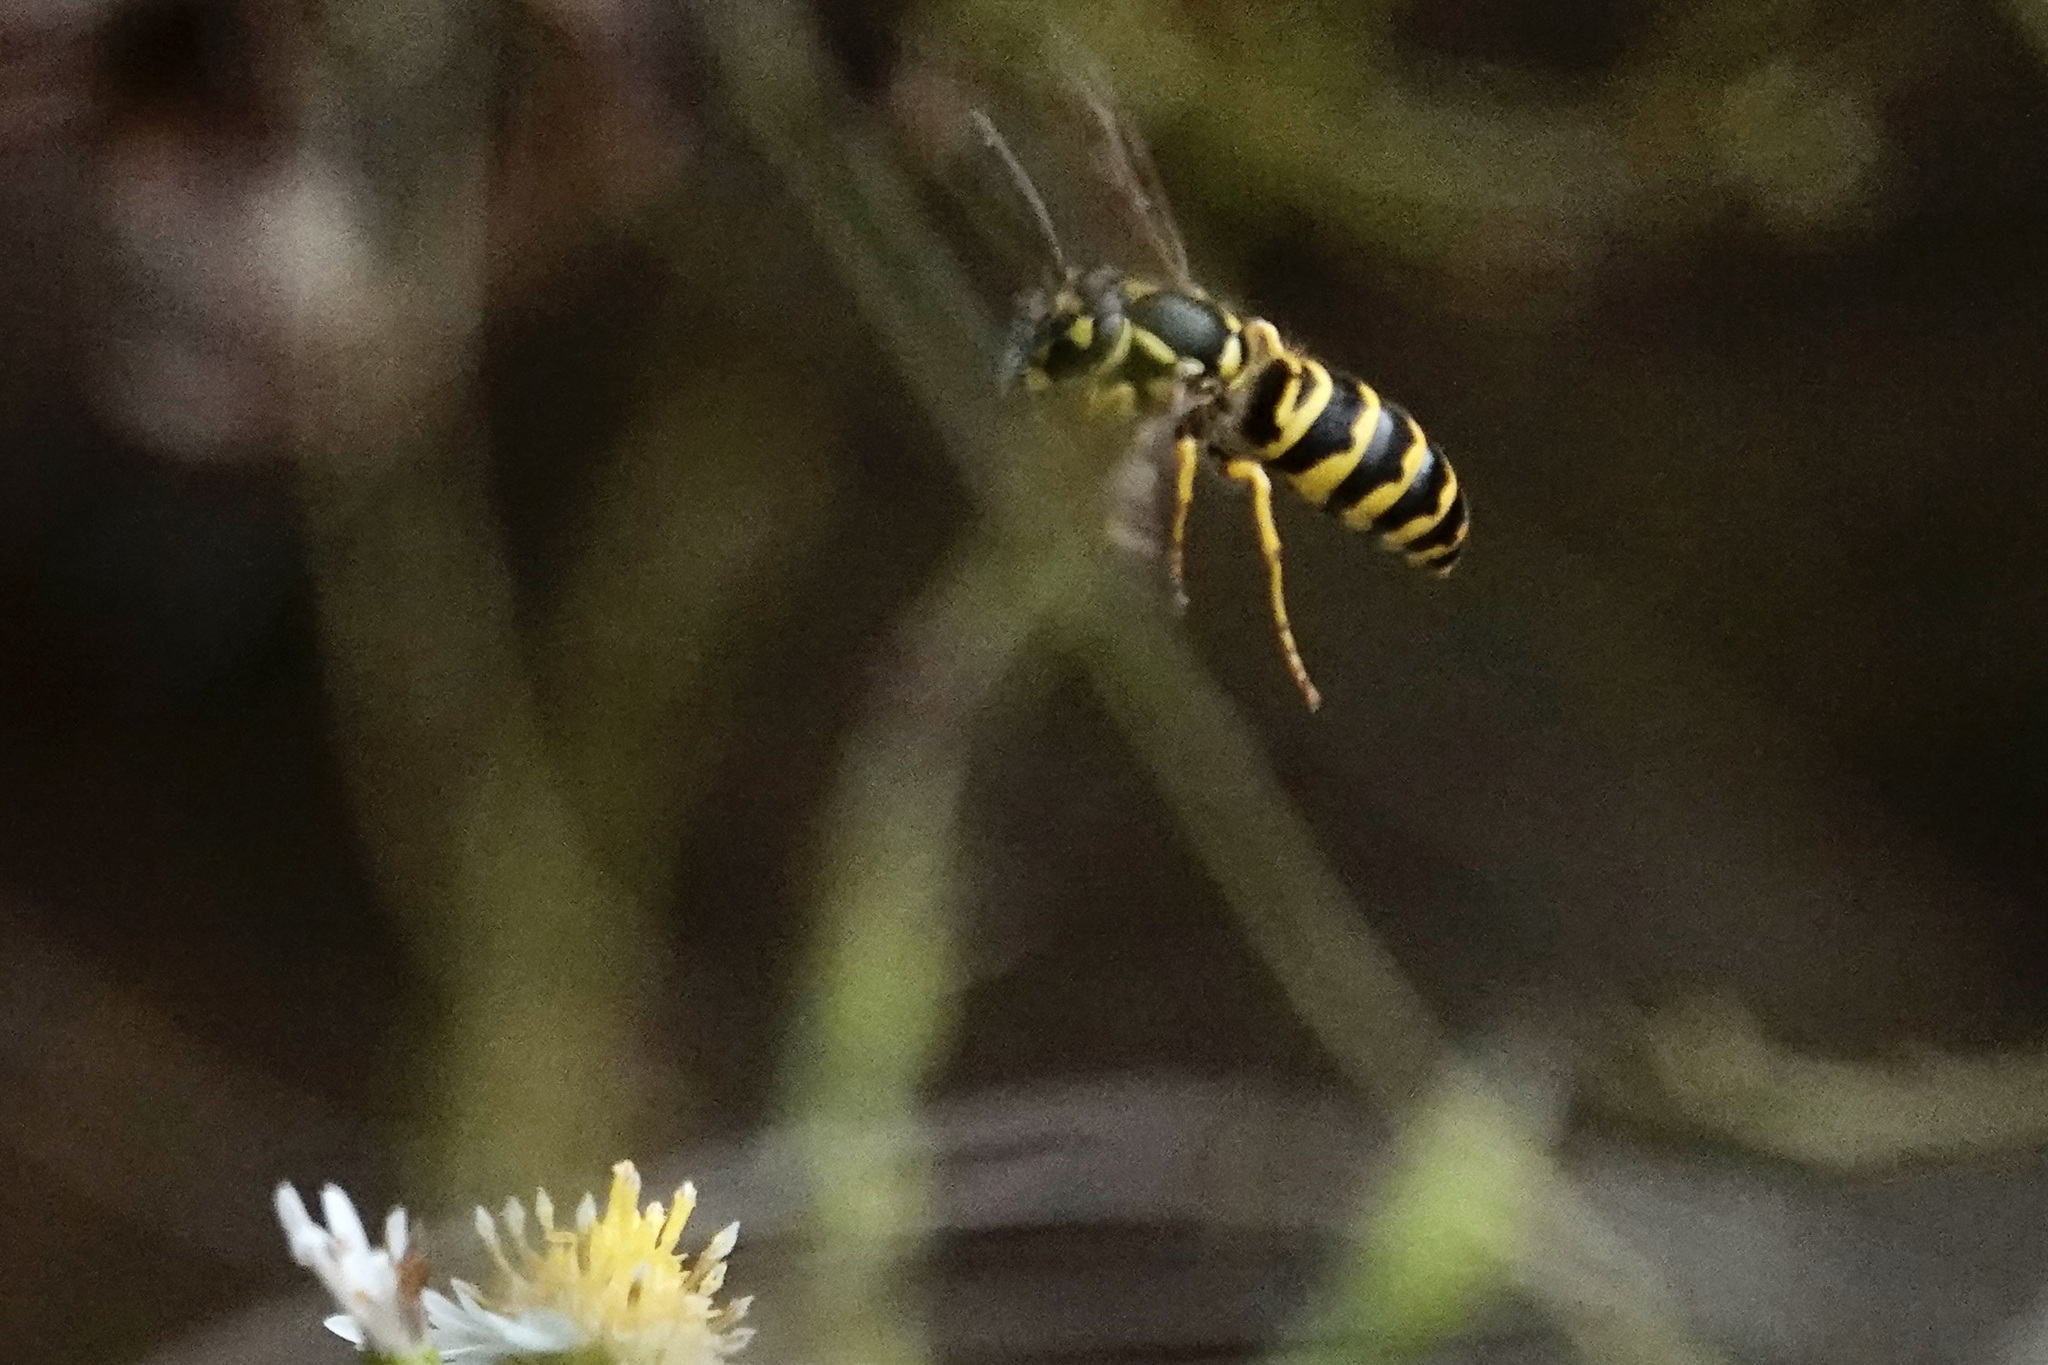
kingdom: Animalia
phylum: Arthropoda
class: Insecta
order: Hymenoptera
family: Vespidae
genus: Vespula
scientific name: Vespula maculifrons
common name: Eastern yellowjacket
